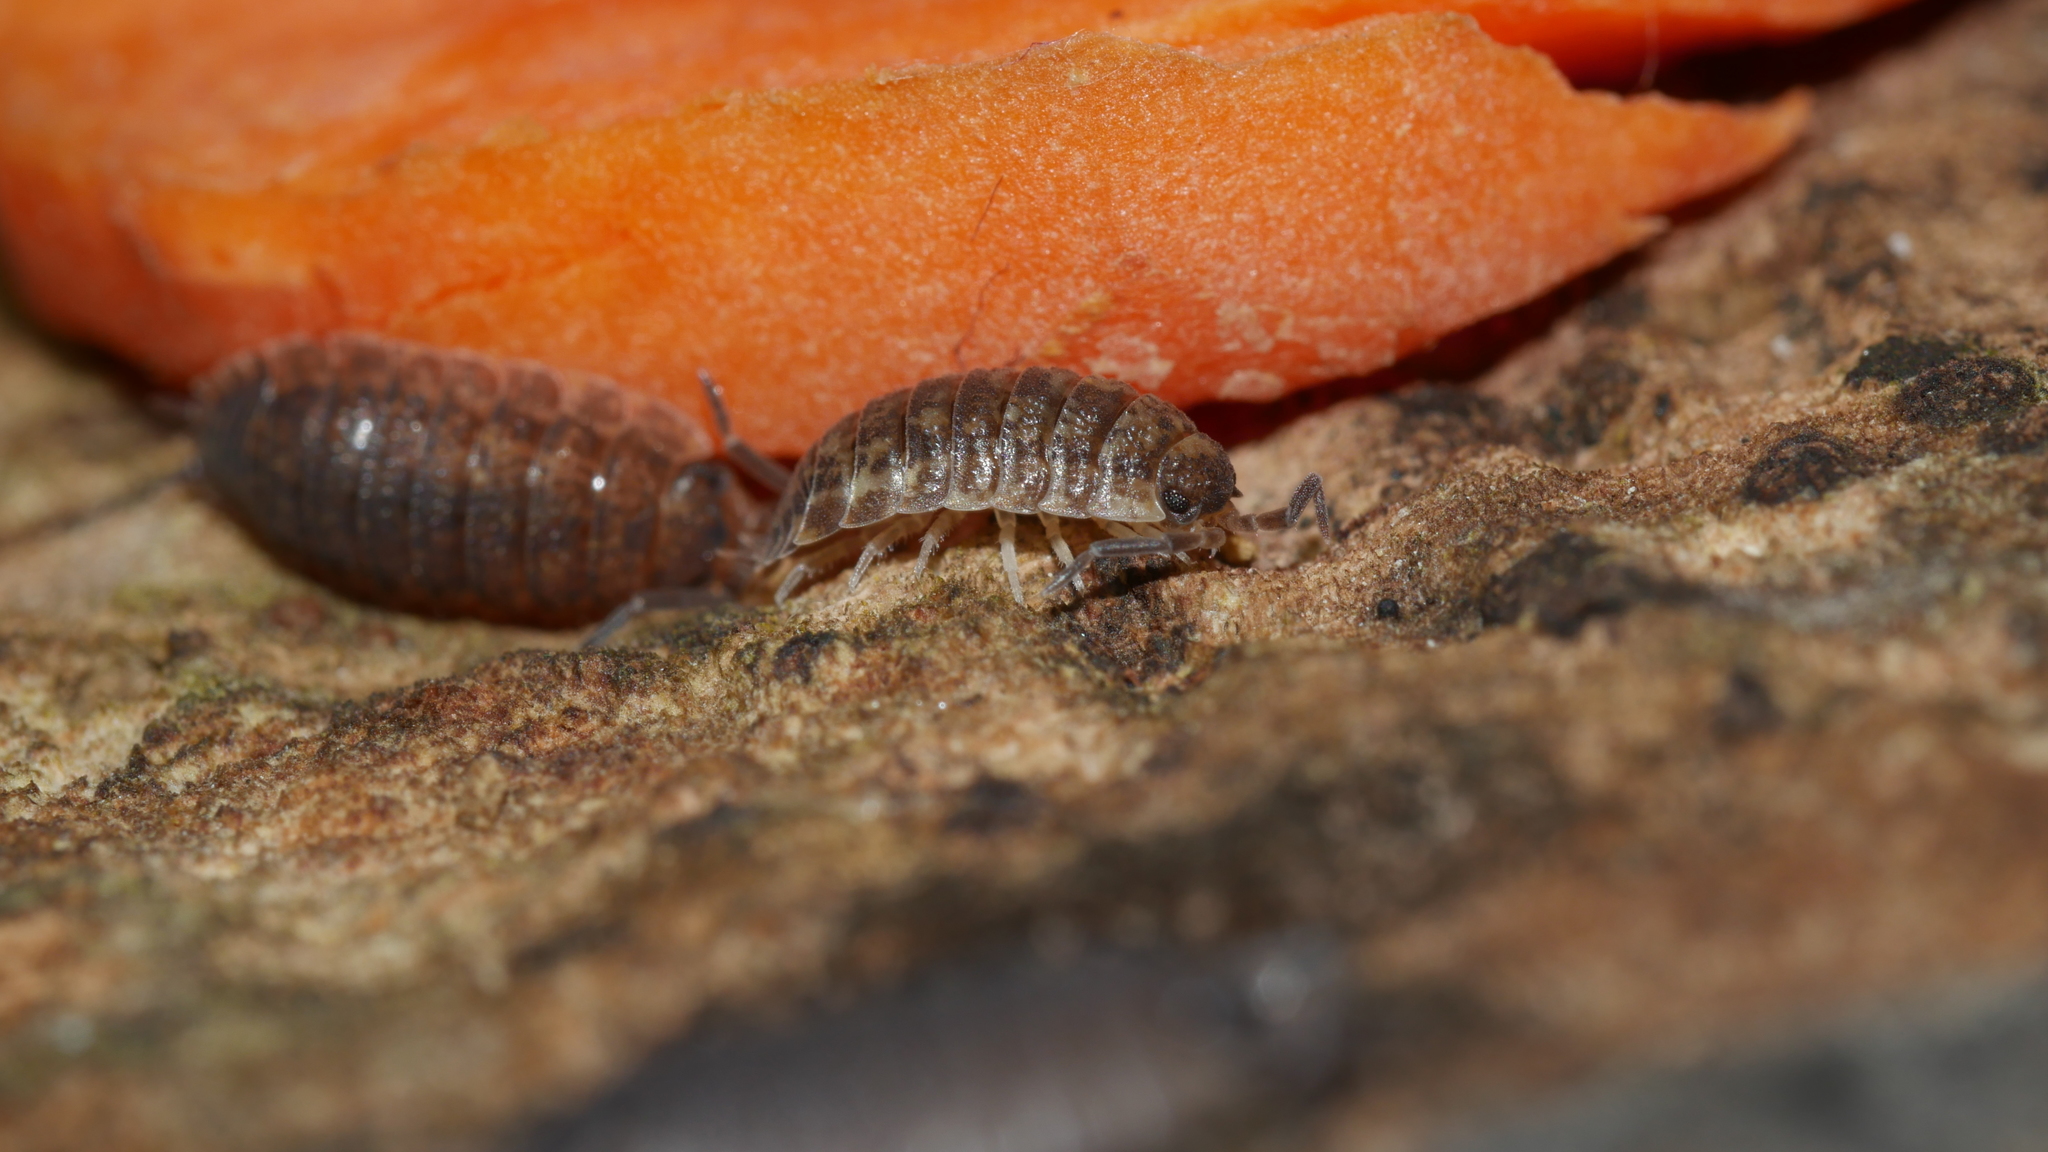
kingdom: Animalia
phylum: Arthropoda
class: Malacostraca
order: Isopoda
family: Porcellionidae
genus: Porcellio
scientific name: Porcellio scaber
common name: Common rough woodlouse
